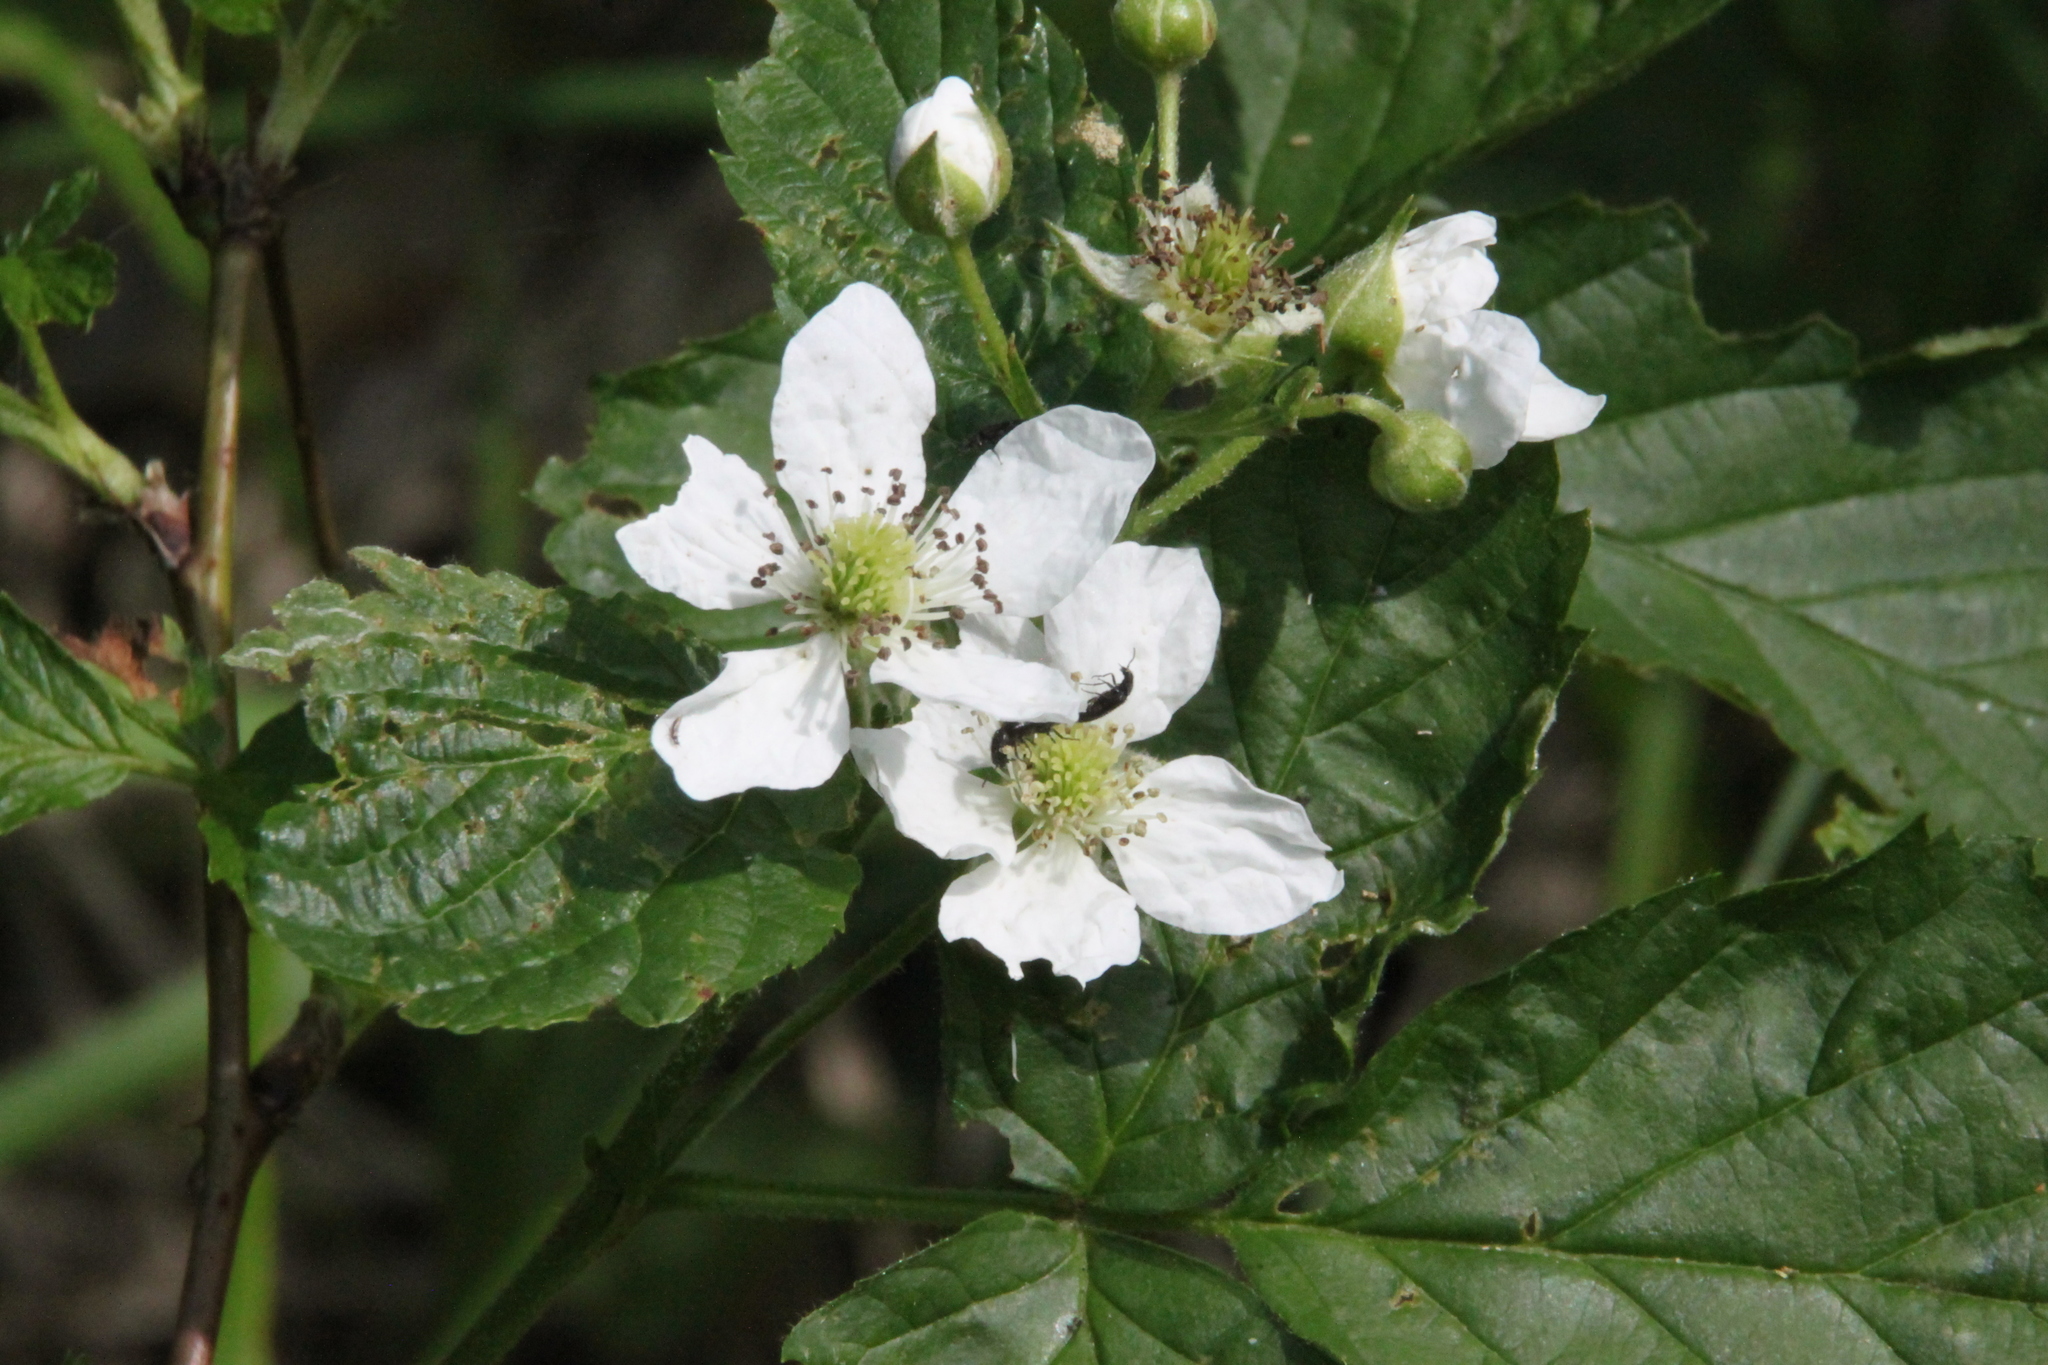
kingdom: Plantae
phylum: Tracheophyta
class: Magnoliopsida
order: Rosales
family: Rosaceae
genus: Rubus
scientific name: Rubus polonicus
